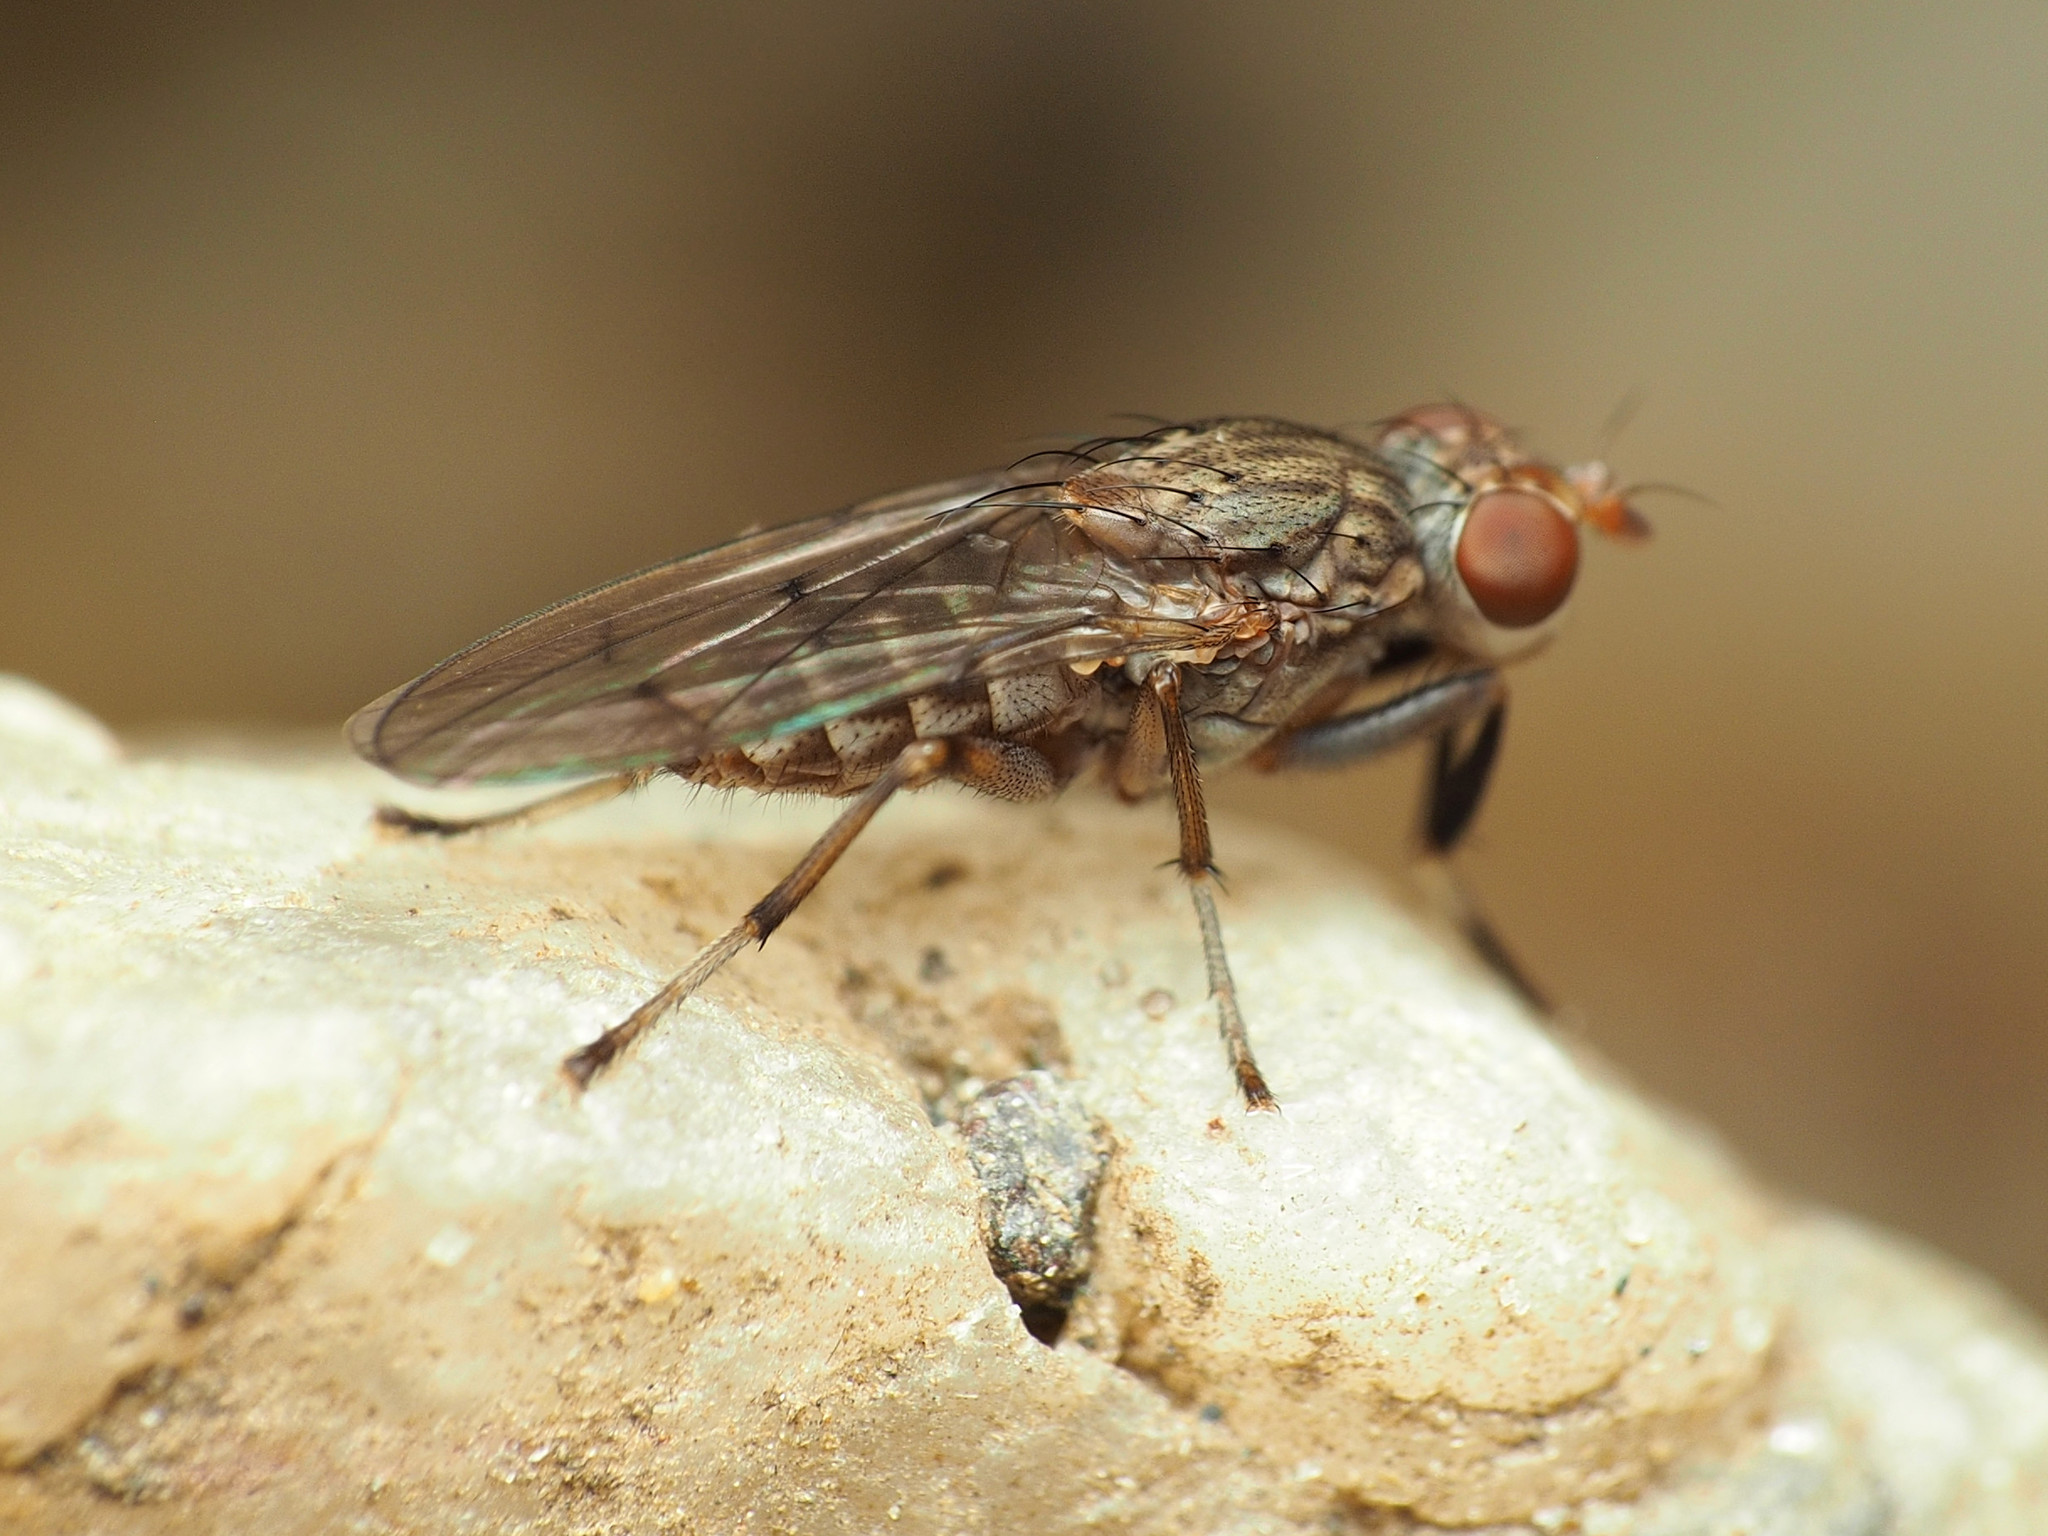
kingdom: Animalia
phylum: Arthropoda
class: Insecta
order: Diptera
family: Sciomyzidae
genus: Atrichomelina
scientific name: Atrichomelina pubera
